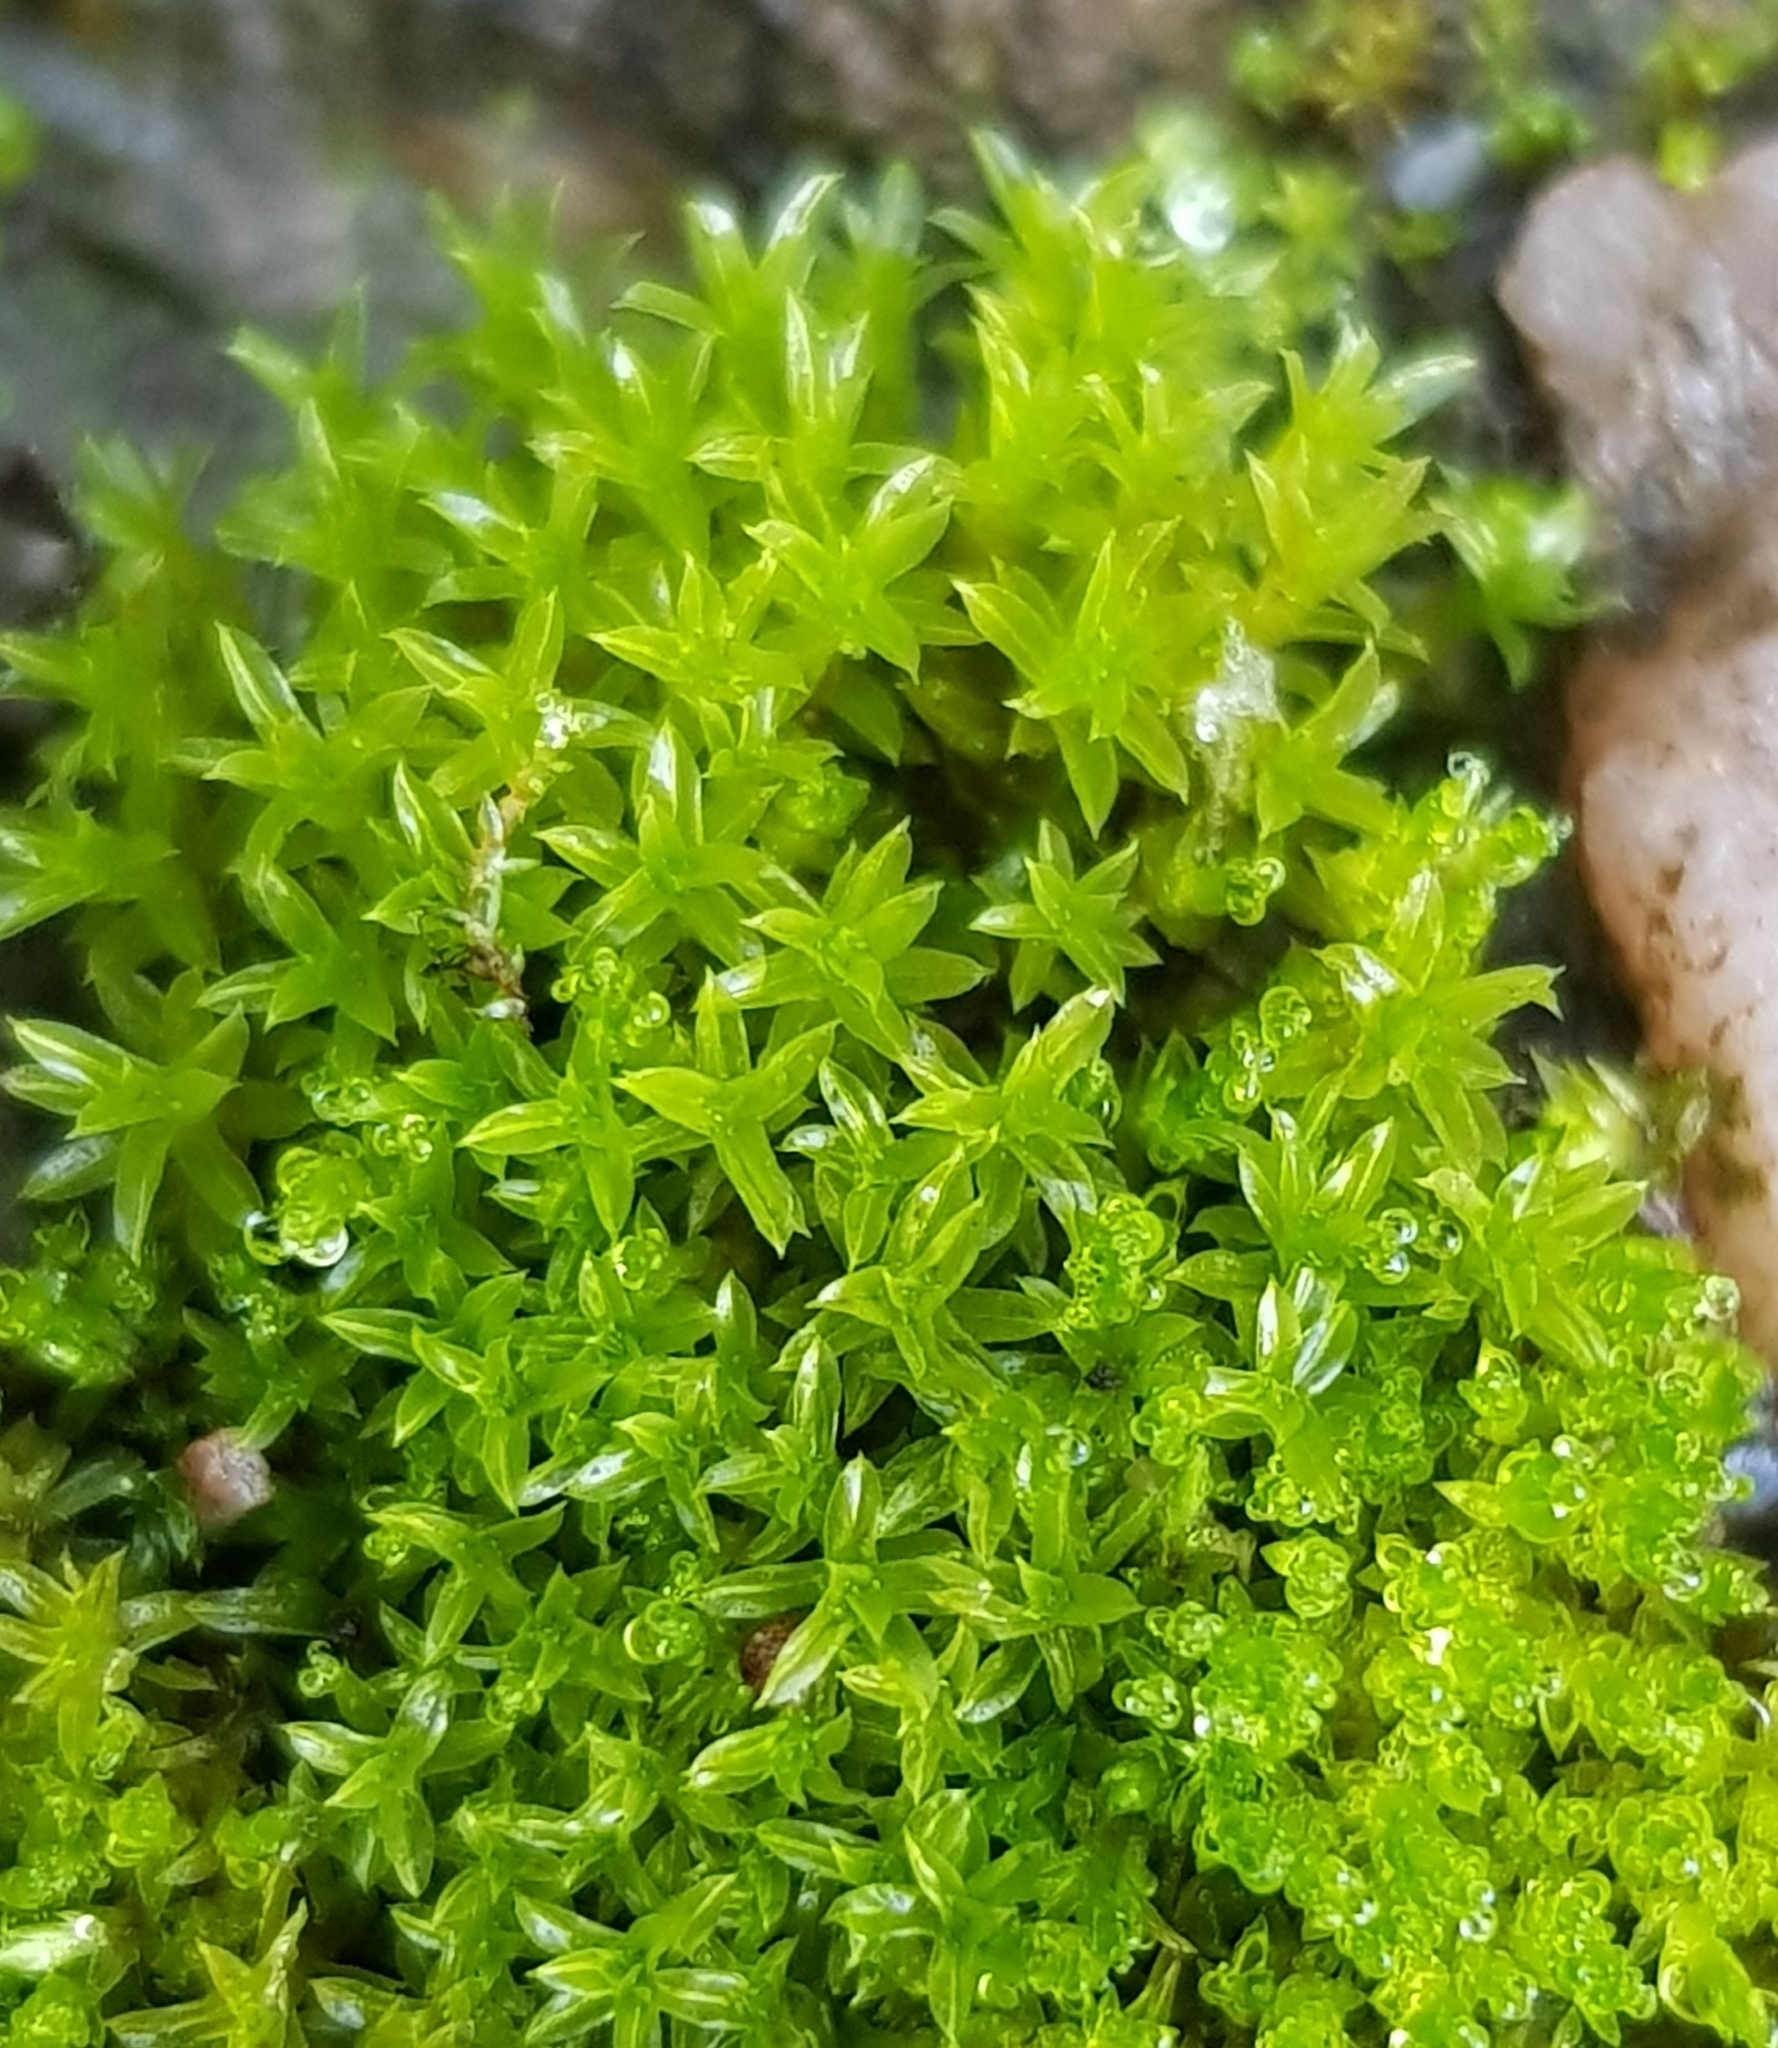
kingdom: Plantae
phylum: Bryophyta
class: Bryopsida
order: Pottiales
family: Pottiaceae
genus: Barbula
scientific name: Barbula unguiculata
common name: Prickly beard moss
